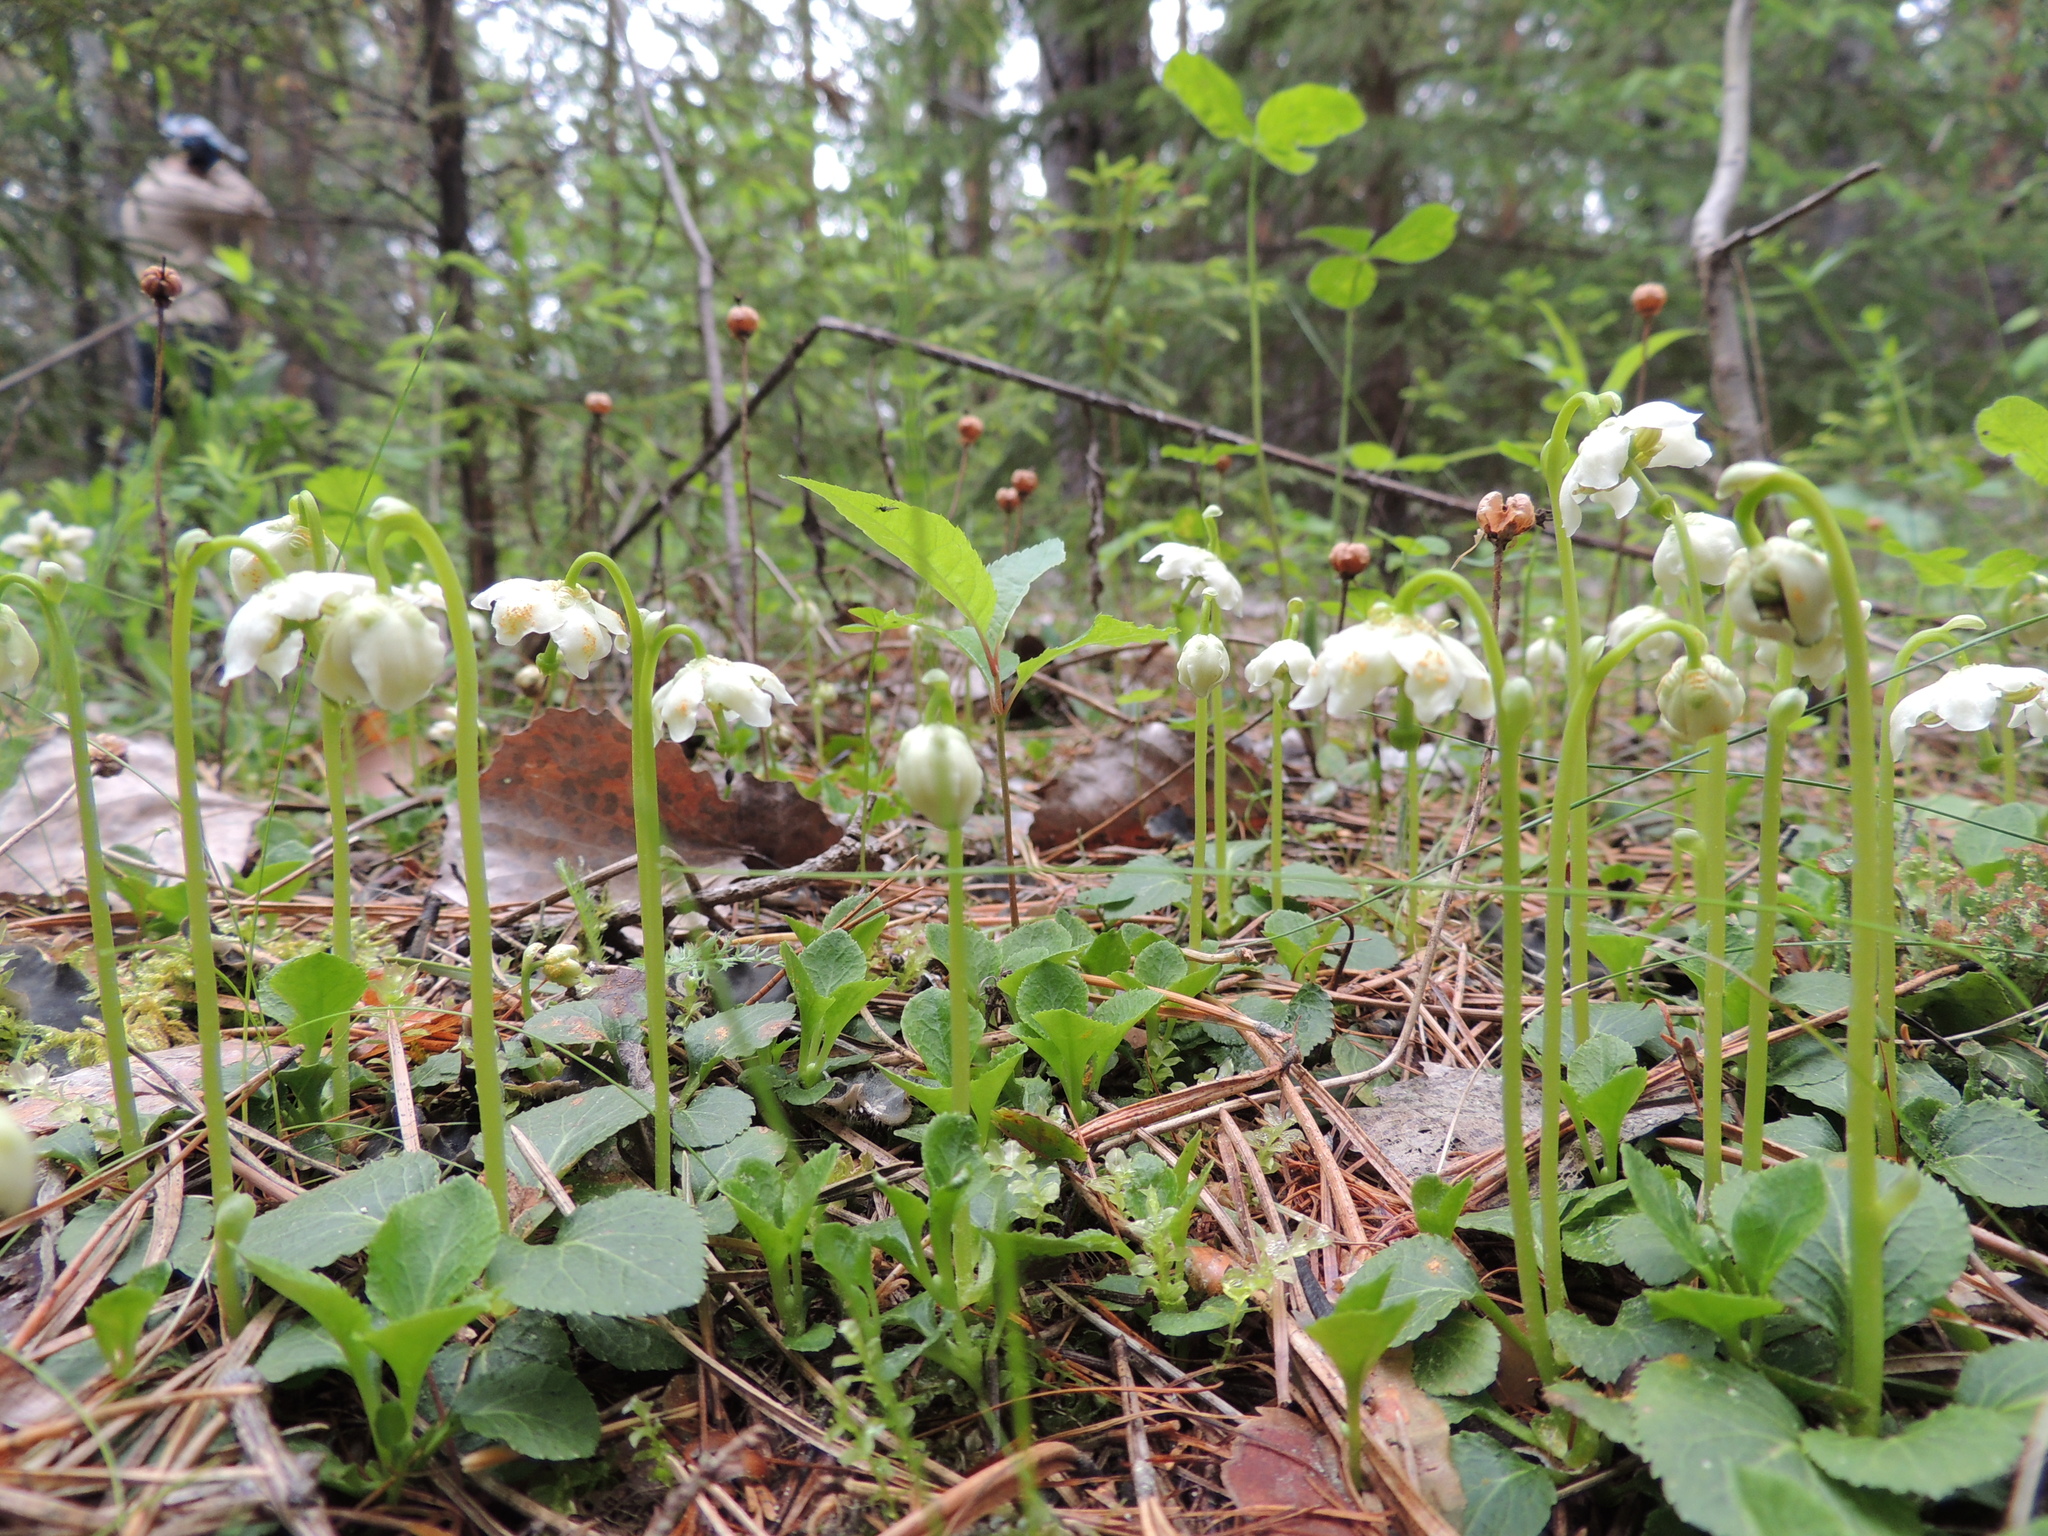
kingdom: Plantae
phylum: Tracheophyta
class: Magnoliopsida
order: Ericales
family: Ericaceae
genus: Moneses
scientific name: Moneses uniflora
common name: One-flowered wintergreen
